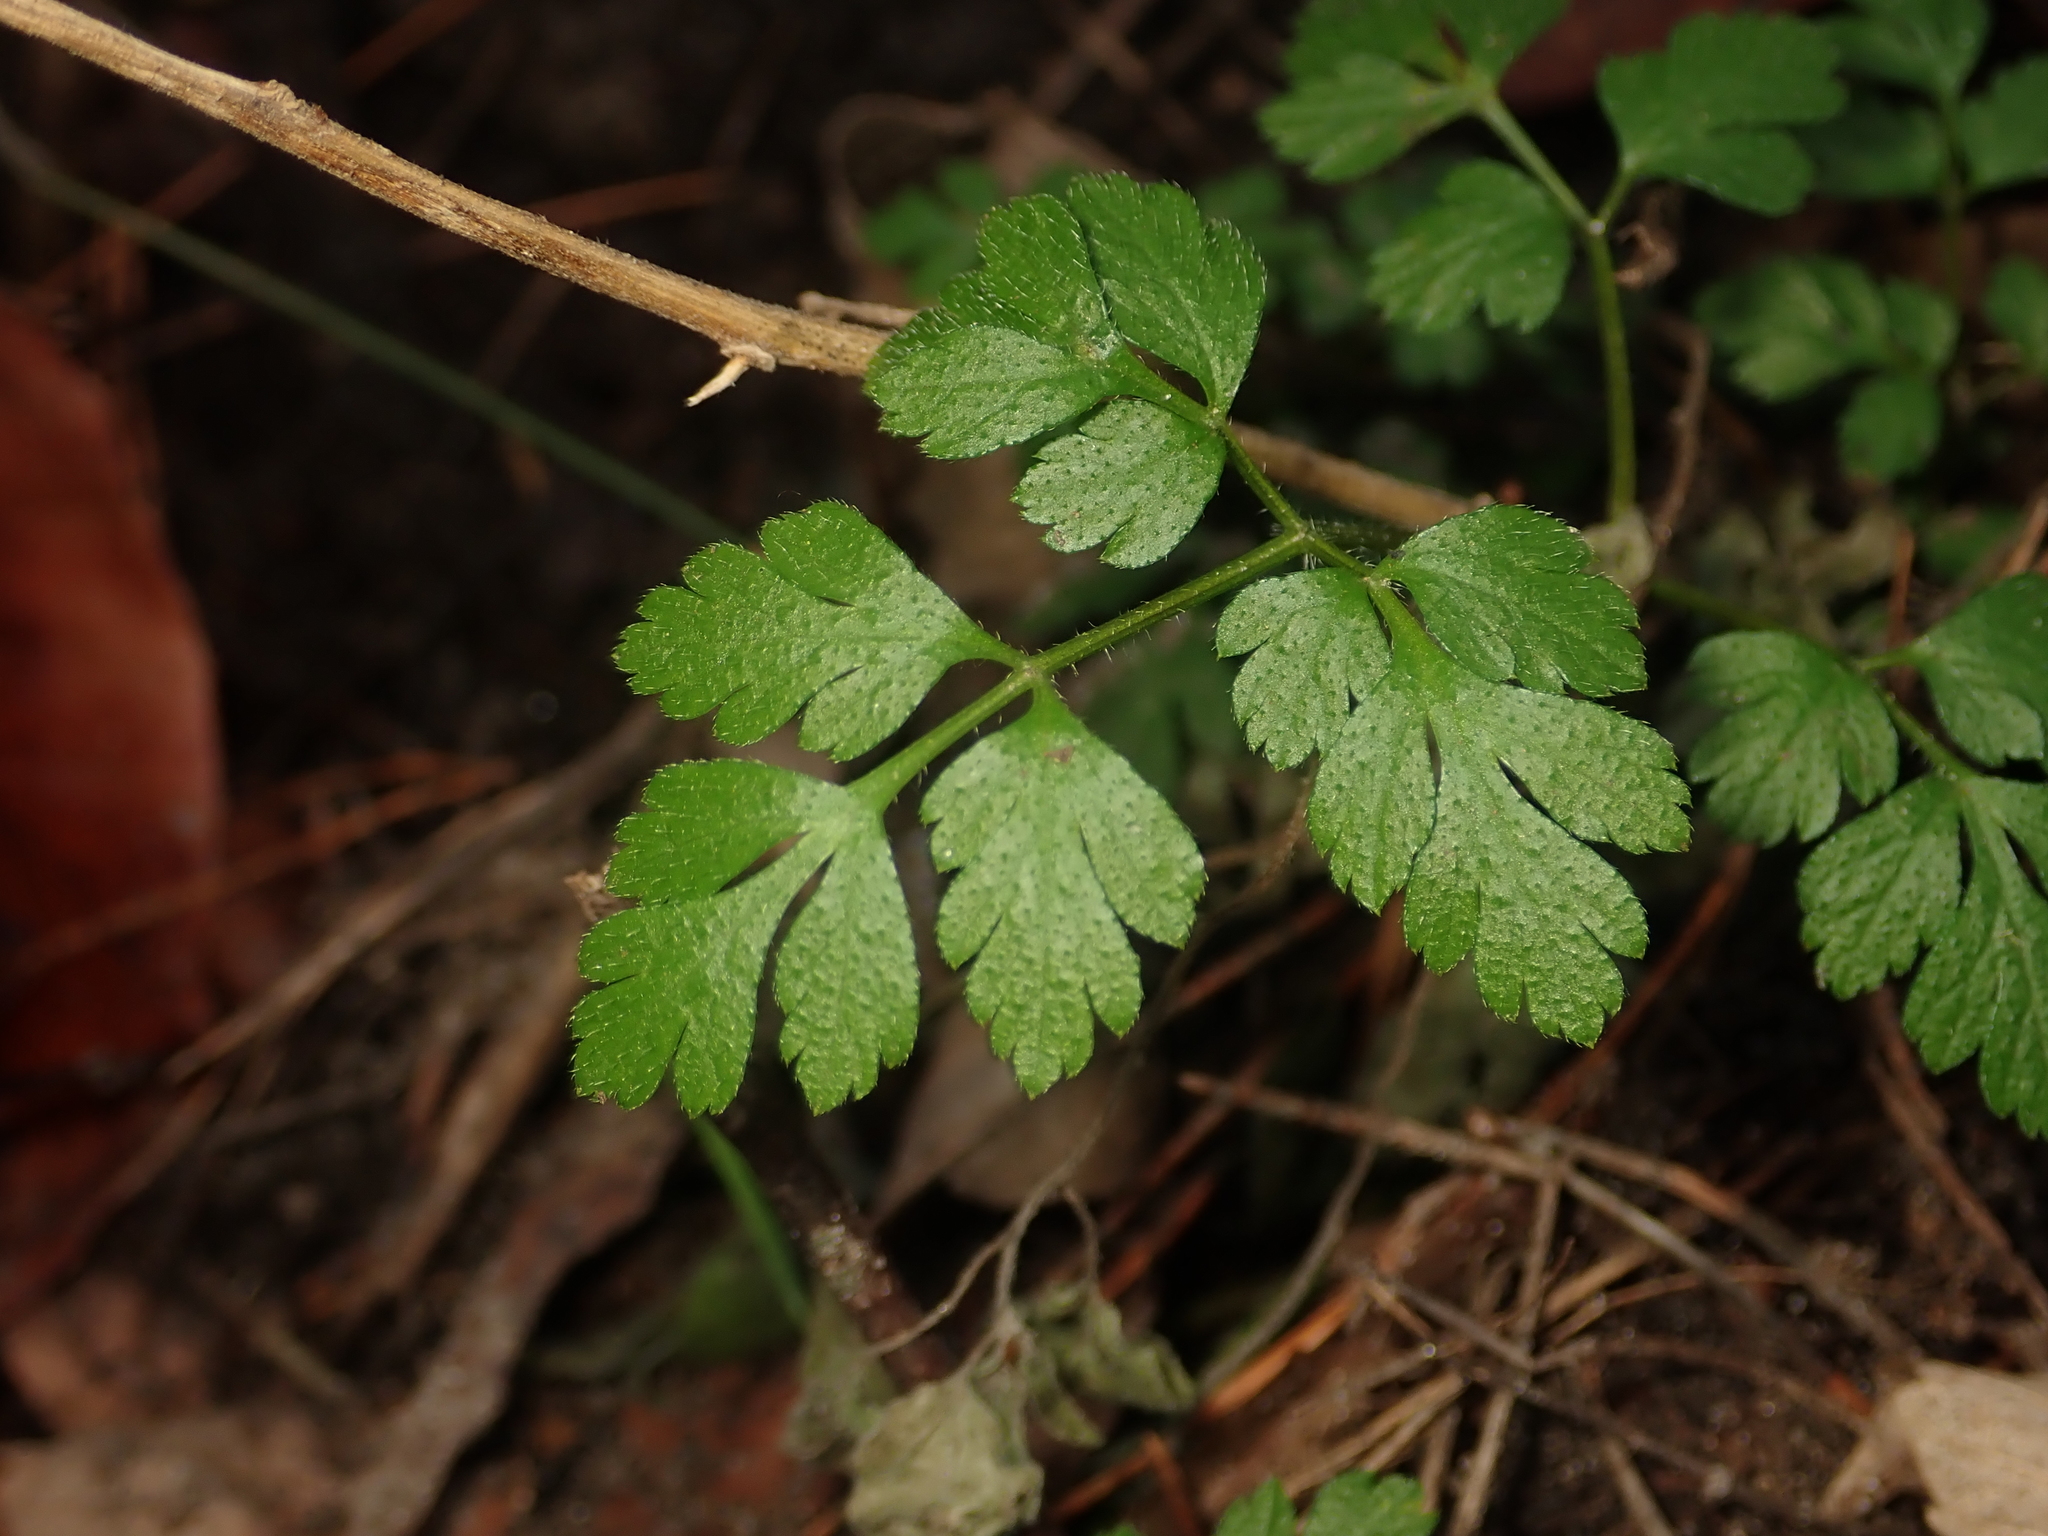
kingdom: Plantae
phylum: Tracheophyta
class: Magnoliopsida
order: Apiales
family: Apiaceae
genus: Chaerophyllum
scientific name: Chaerophyllum temulum
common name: Rough chervil
